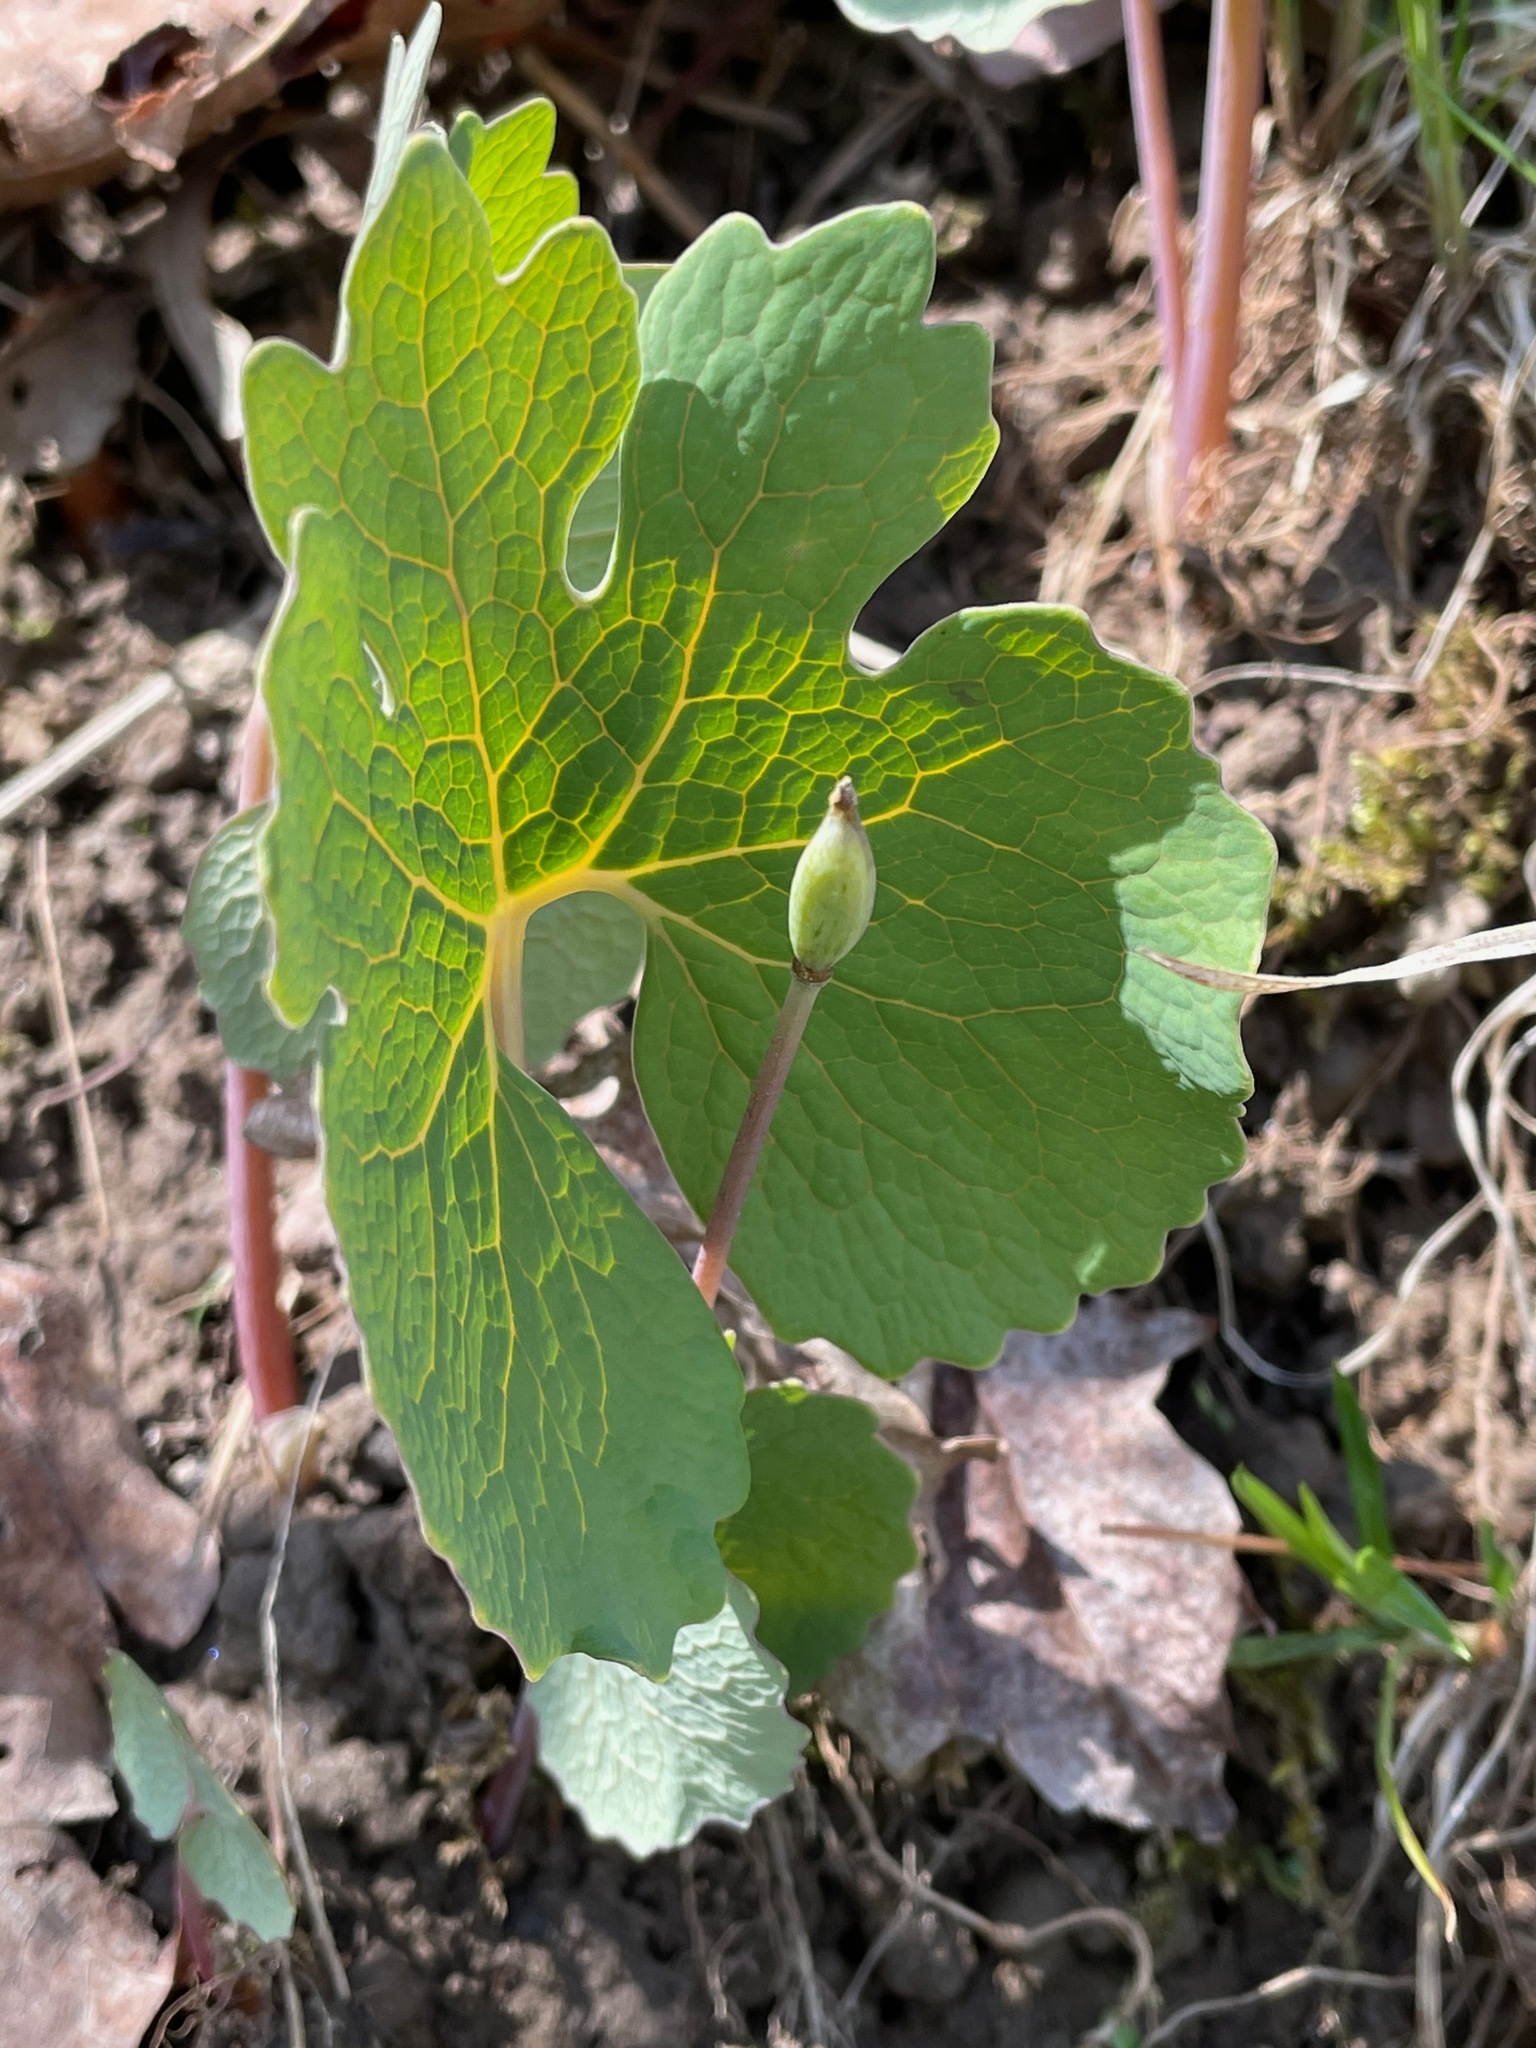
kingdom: Plantae
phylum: Tracheophyta
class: Magnoliopsida
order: Ranunculales
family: Papaveraceae
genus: Sanguinaria
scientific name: Sanguinaria canadensis
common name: Bloodroot
